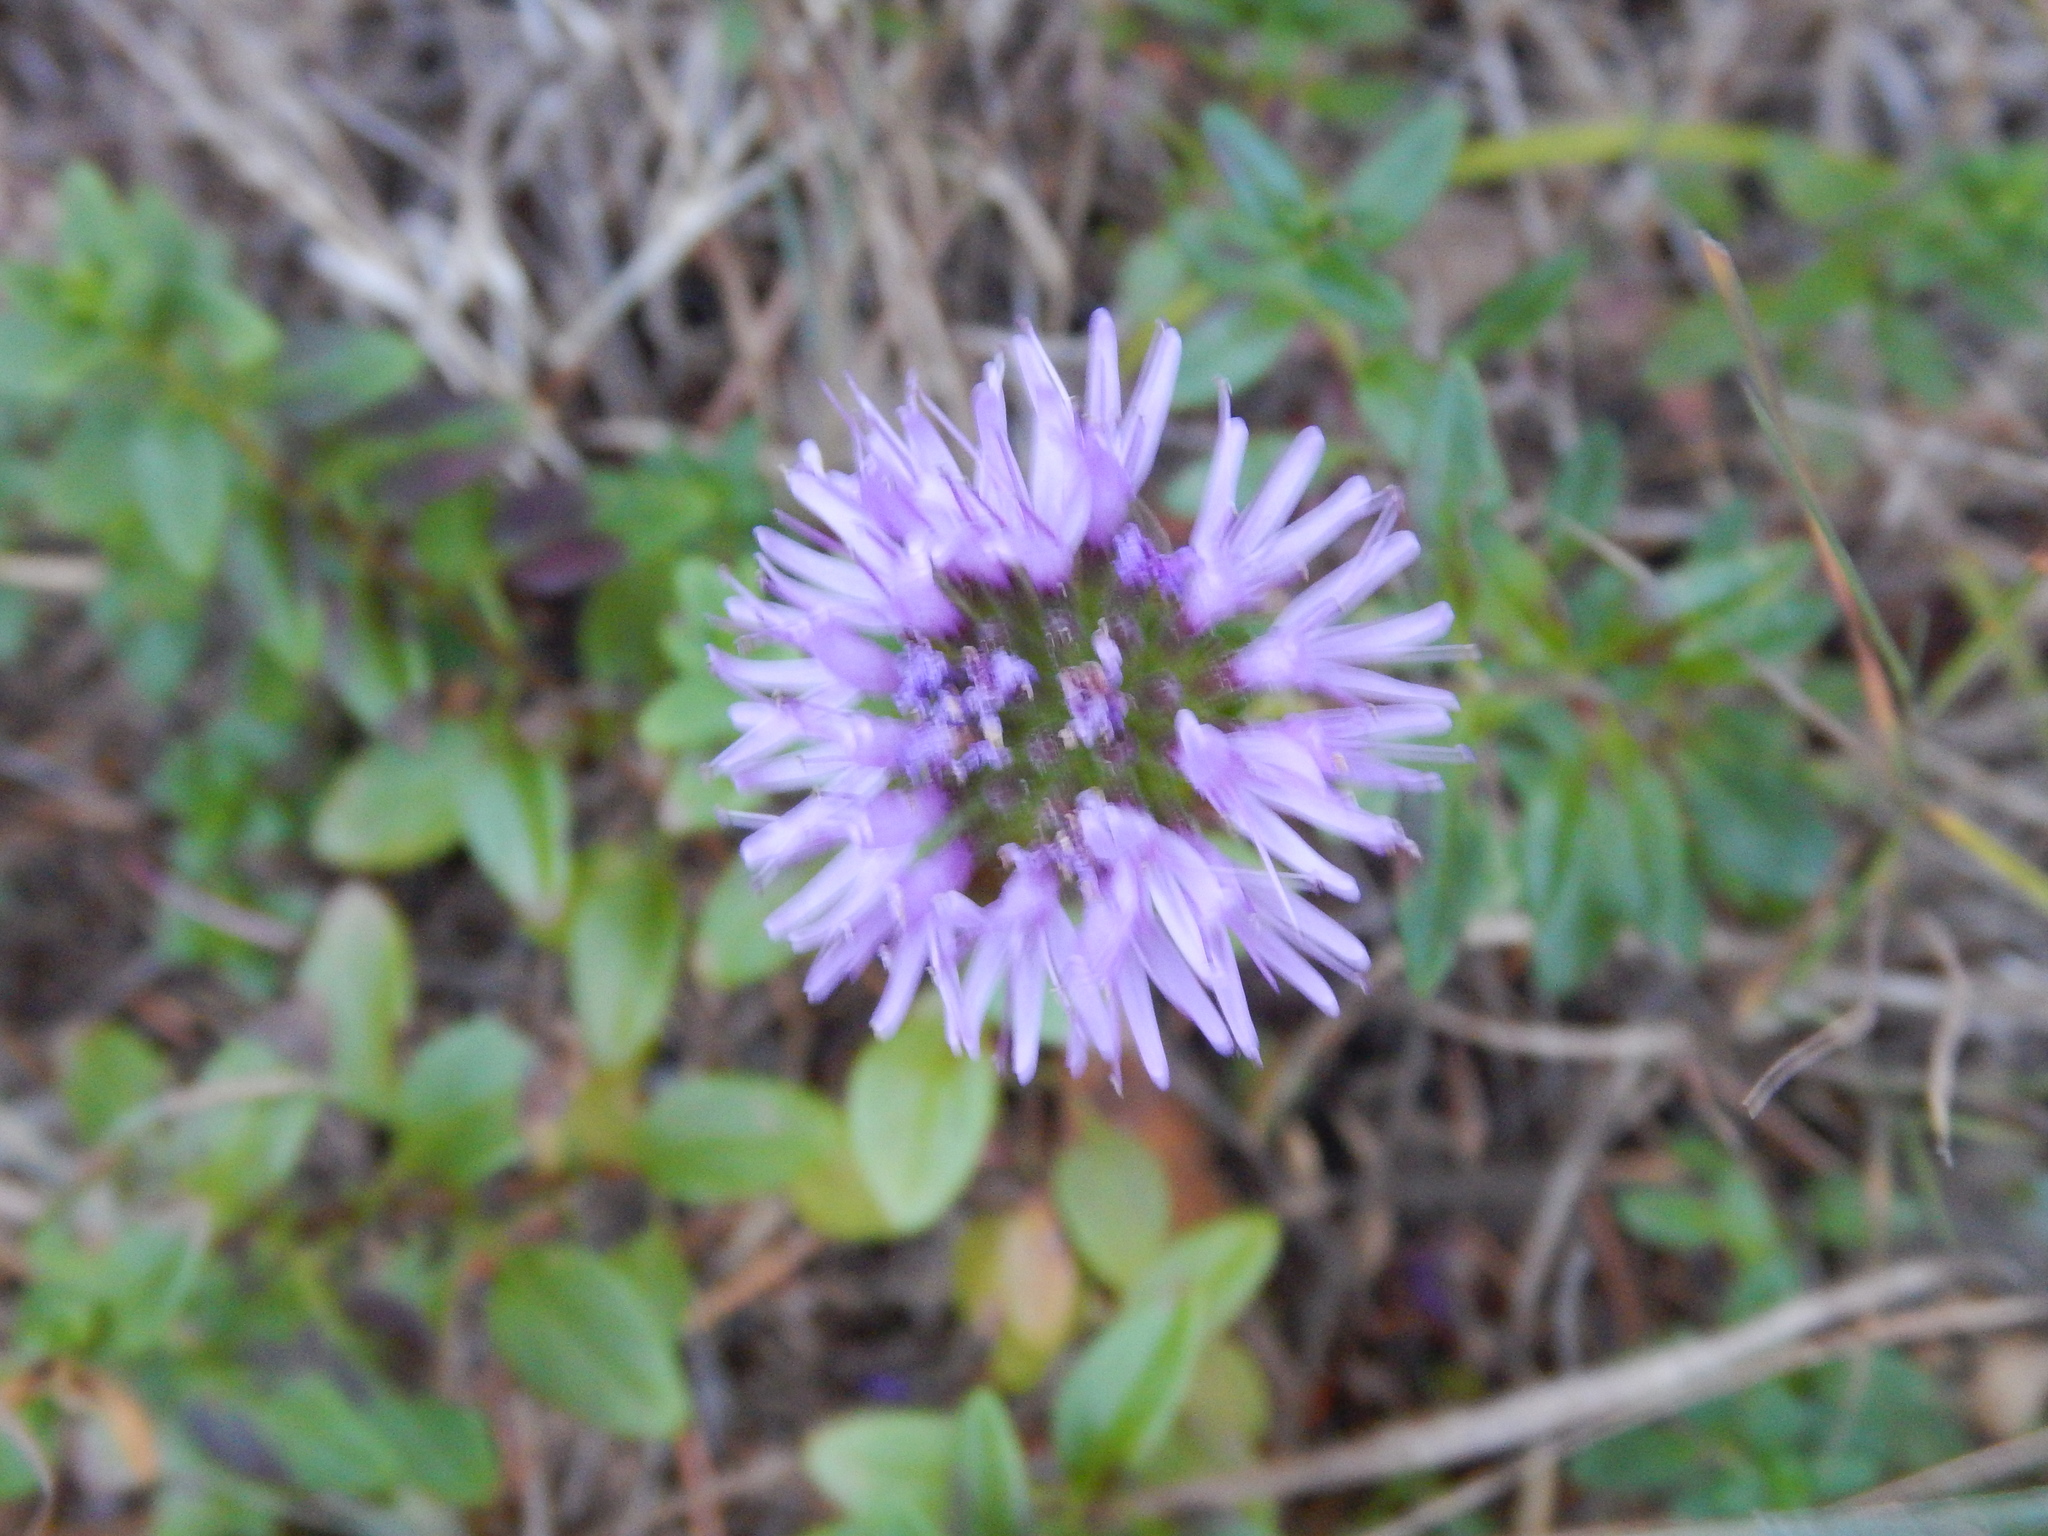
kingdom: Plantae
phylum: Tracheophyta
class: Magnoliopsida
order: Lamiales
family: Lamiaceae
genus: Monardella
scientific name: Monardella purpurea
